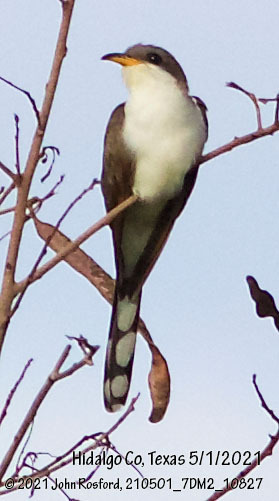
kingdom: Animalia
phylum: Chordata
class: Aves
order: Cuculiformes
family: Cuculidae
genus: Coccyzus
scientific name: Coccyzus americanus
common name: Yellow-billed cuckoo
